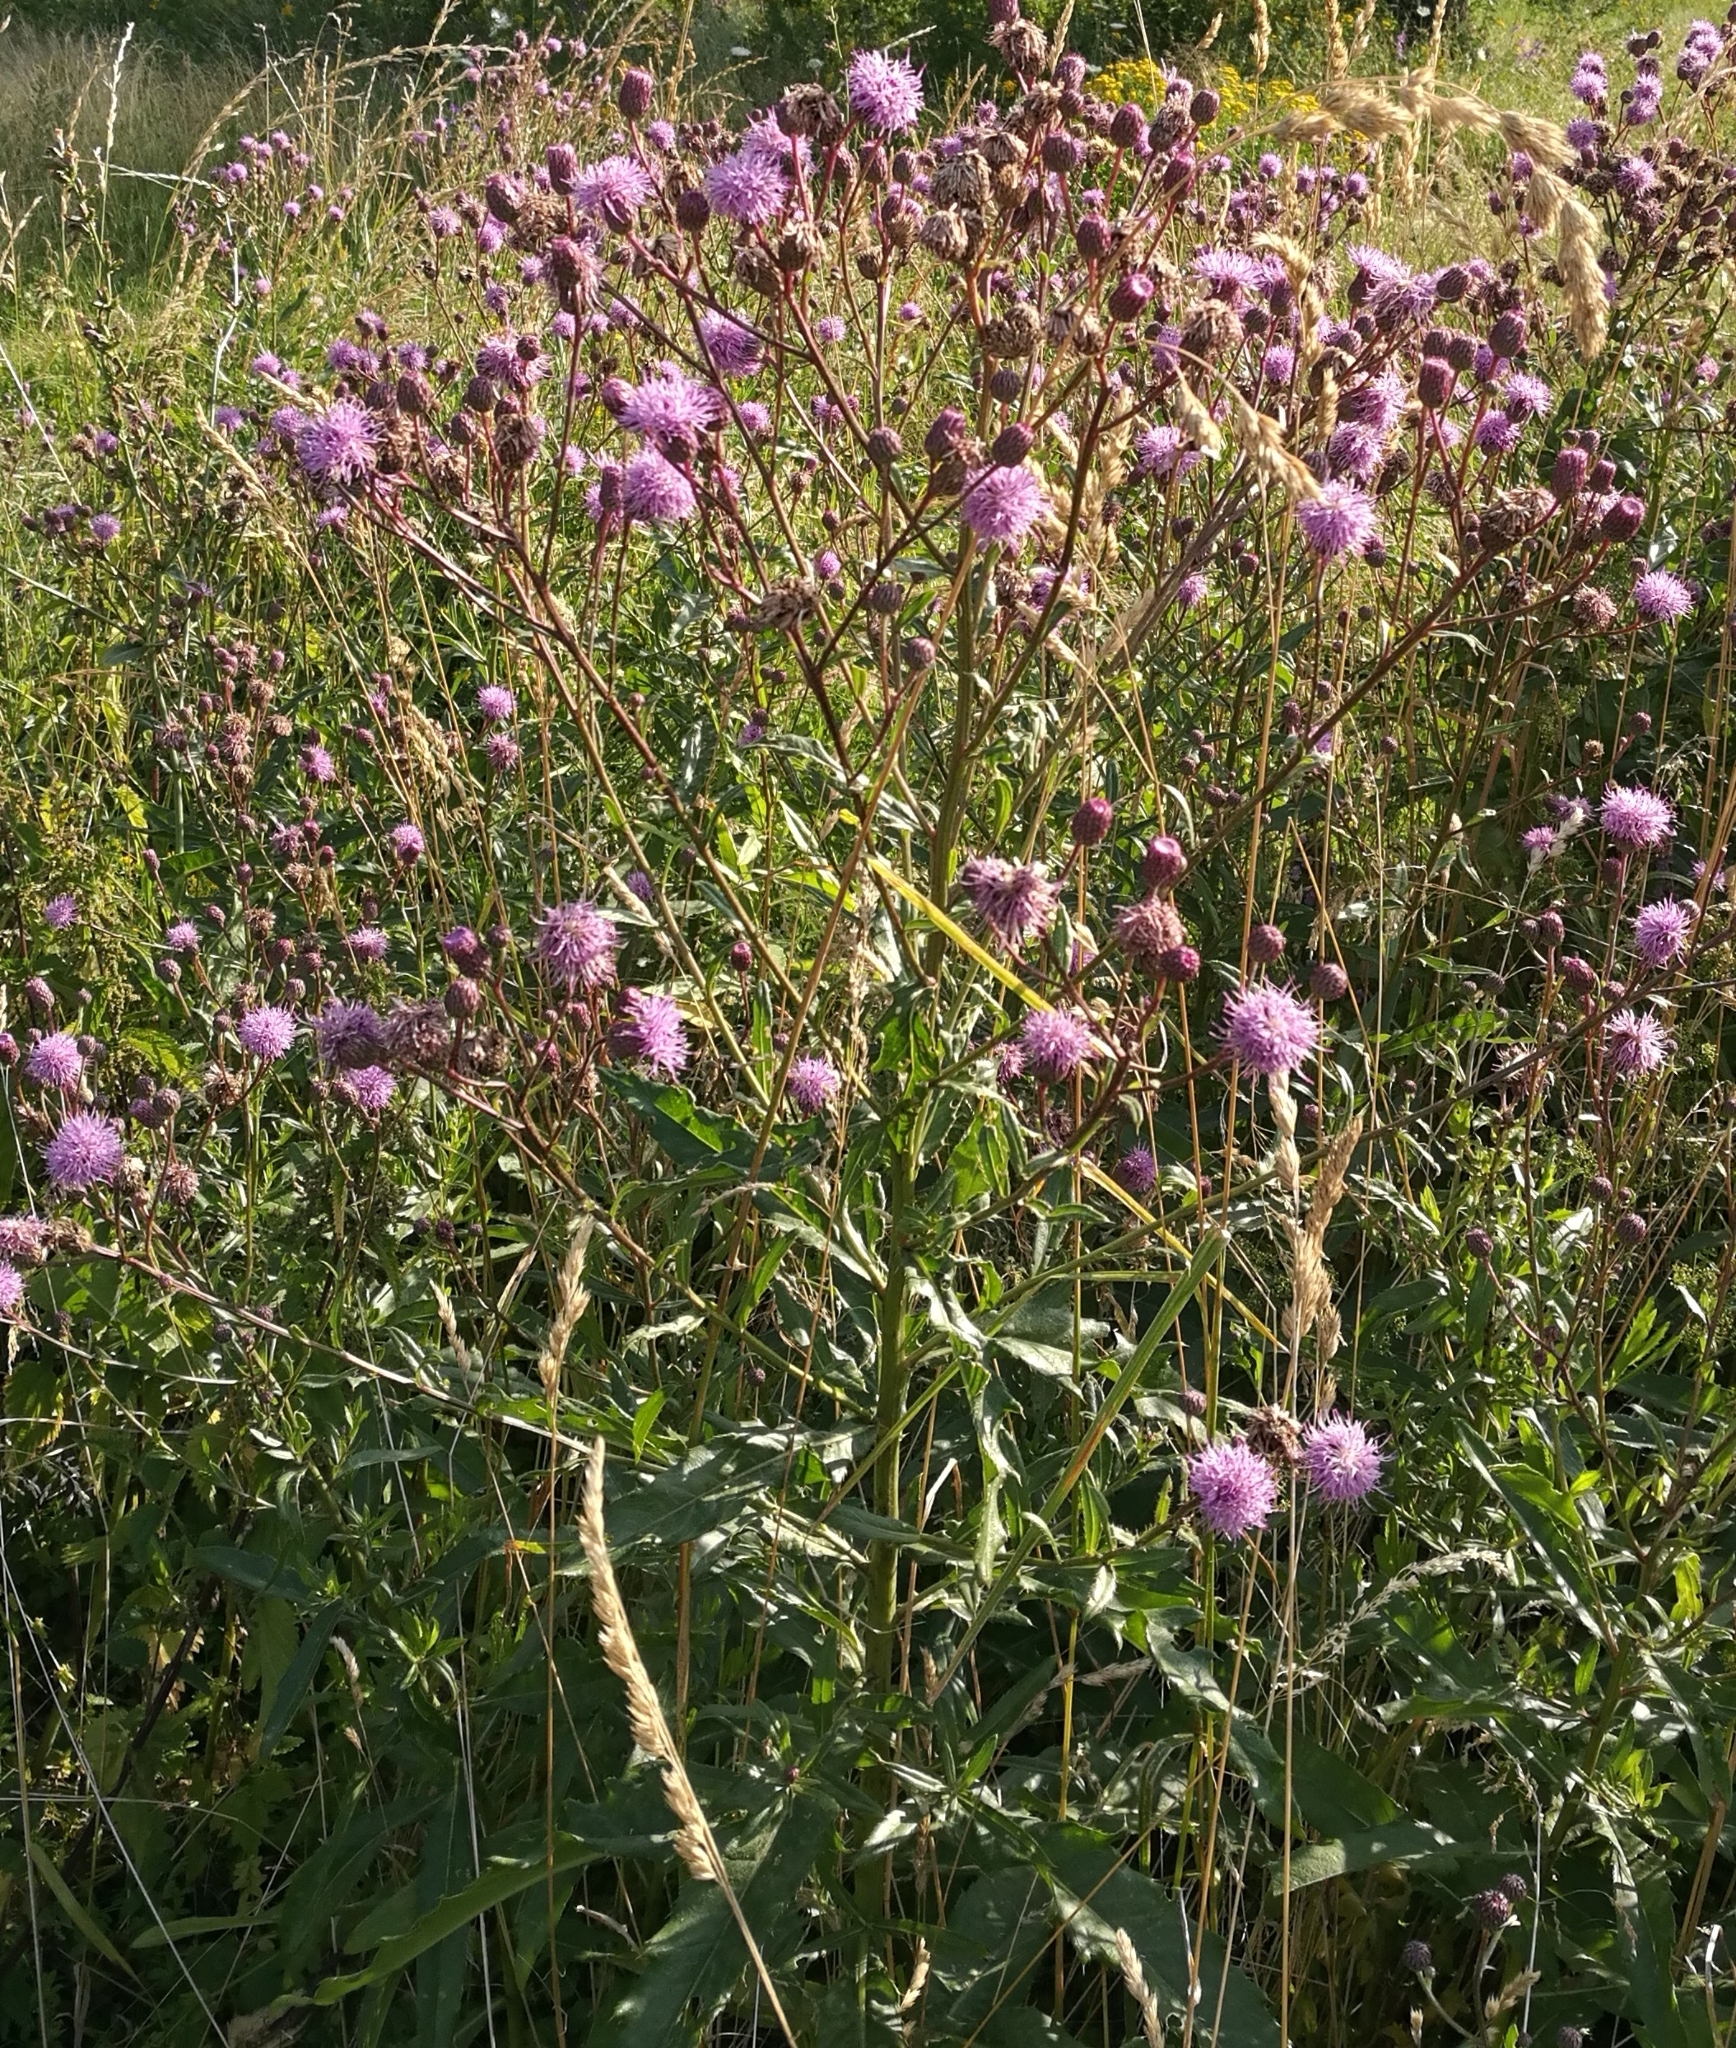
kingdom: Plantae
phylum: Tracheophyta
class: Magnoliopsida
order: Asterales
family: Asteraceae
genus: Cirsium
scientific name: Cirsium arvense
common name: Creeping thistle
